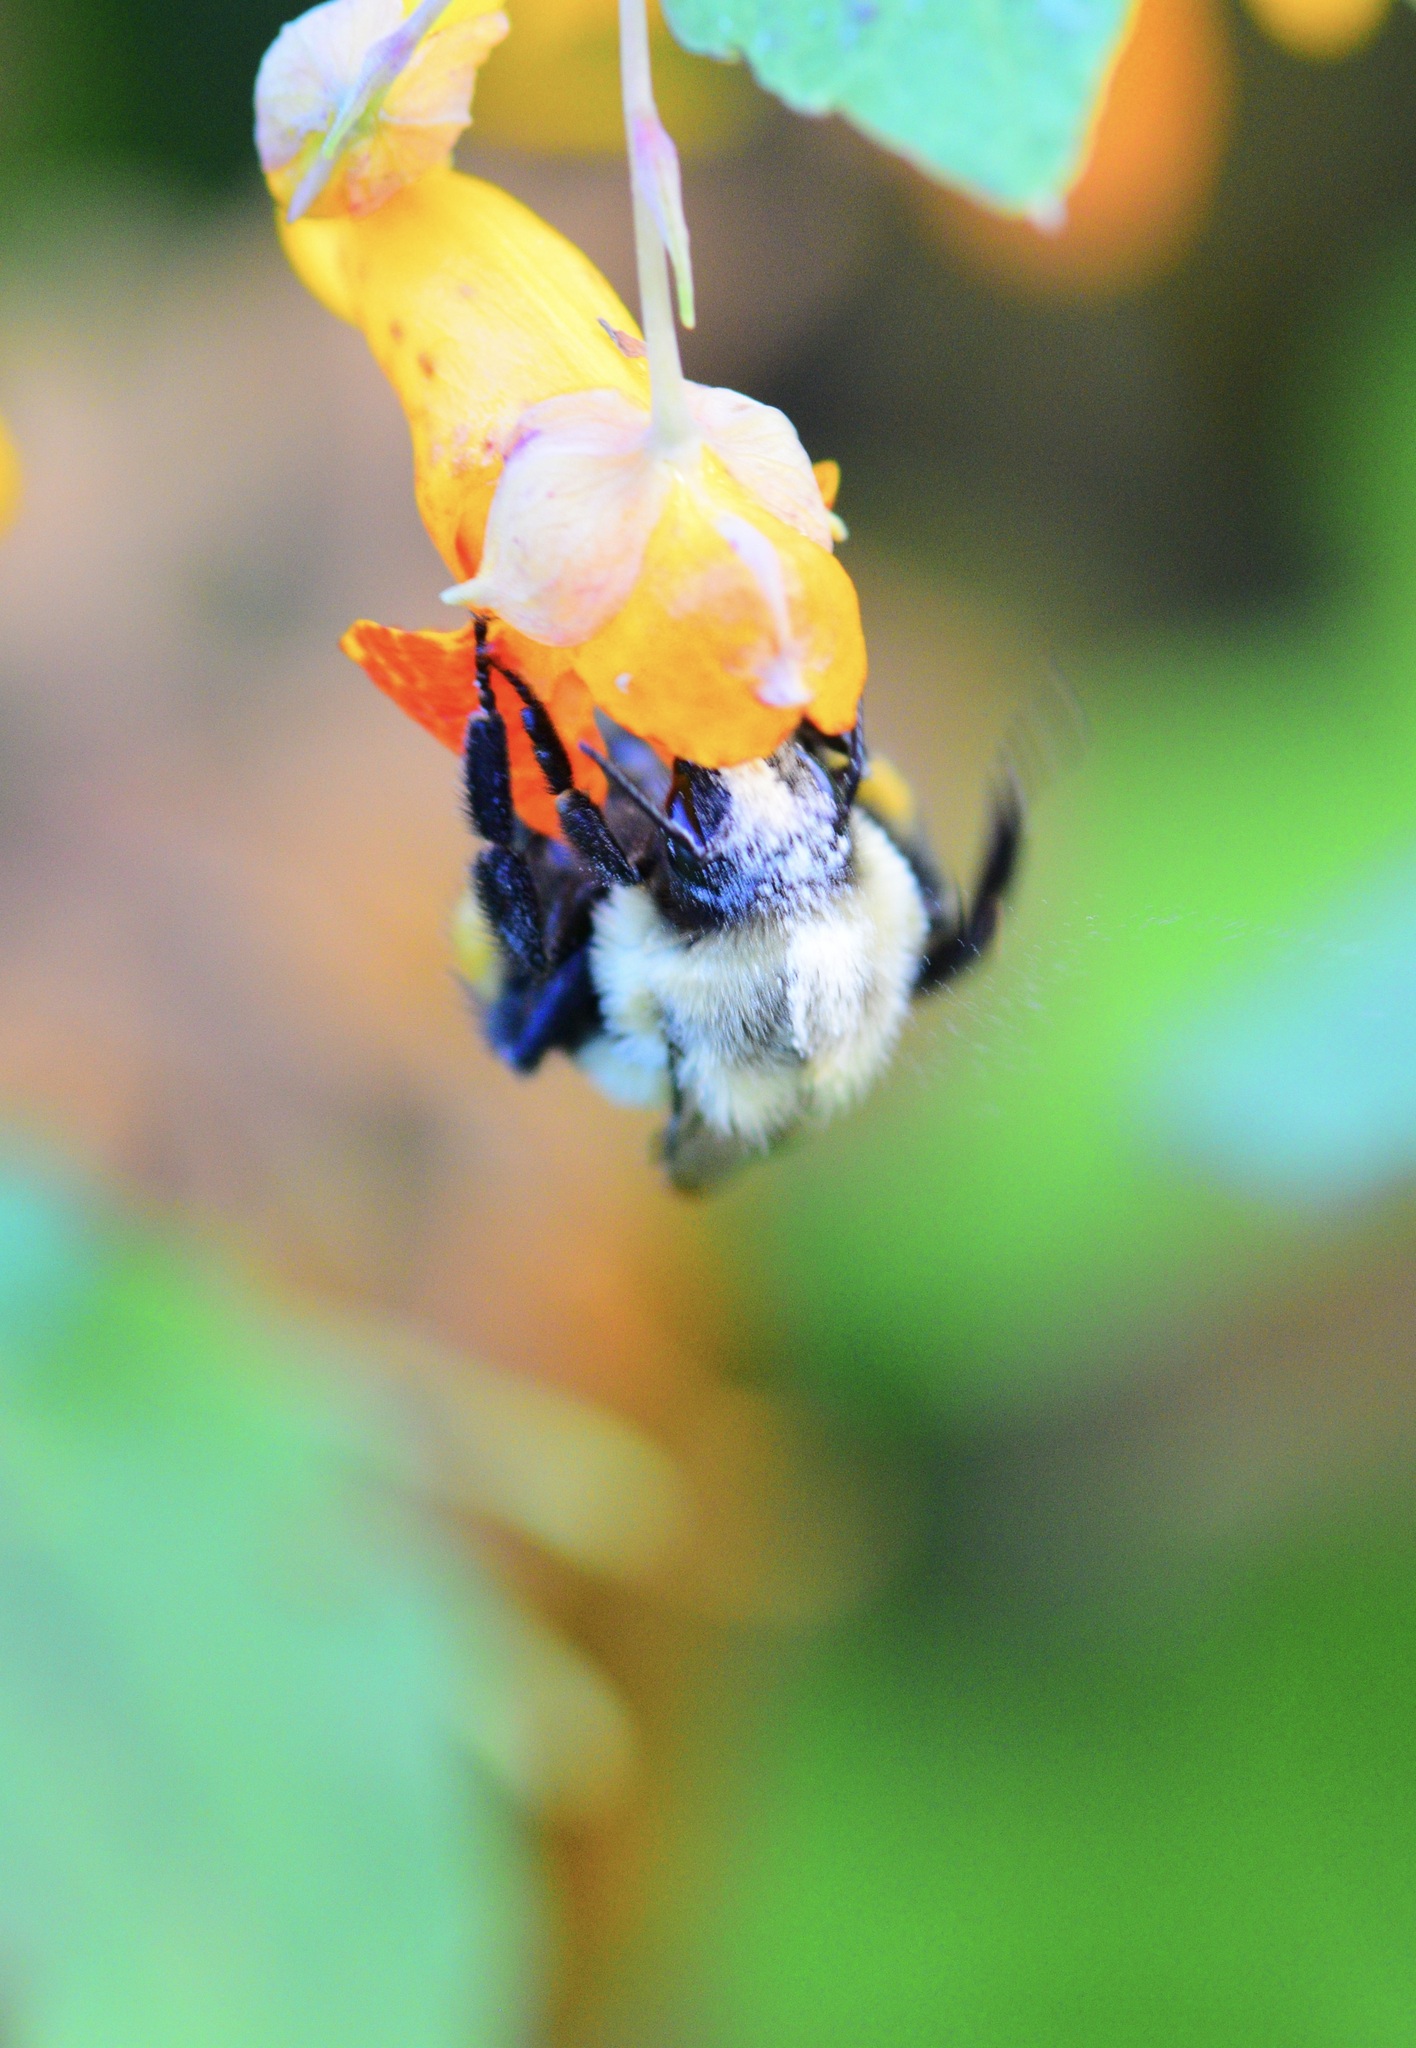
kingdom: Animalia
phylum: Arthropoda
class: Insecta
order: Hymenoptera
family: Apidae
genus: Bombus
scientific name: Bombus impatiens
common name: Common eastern bumble bee
